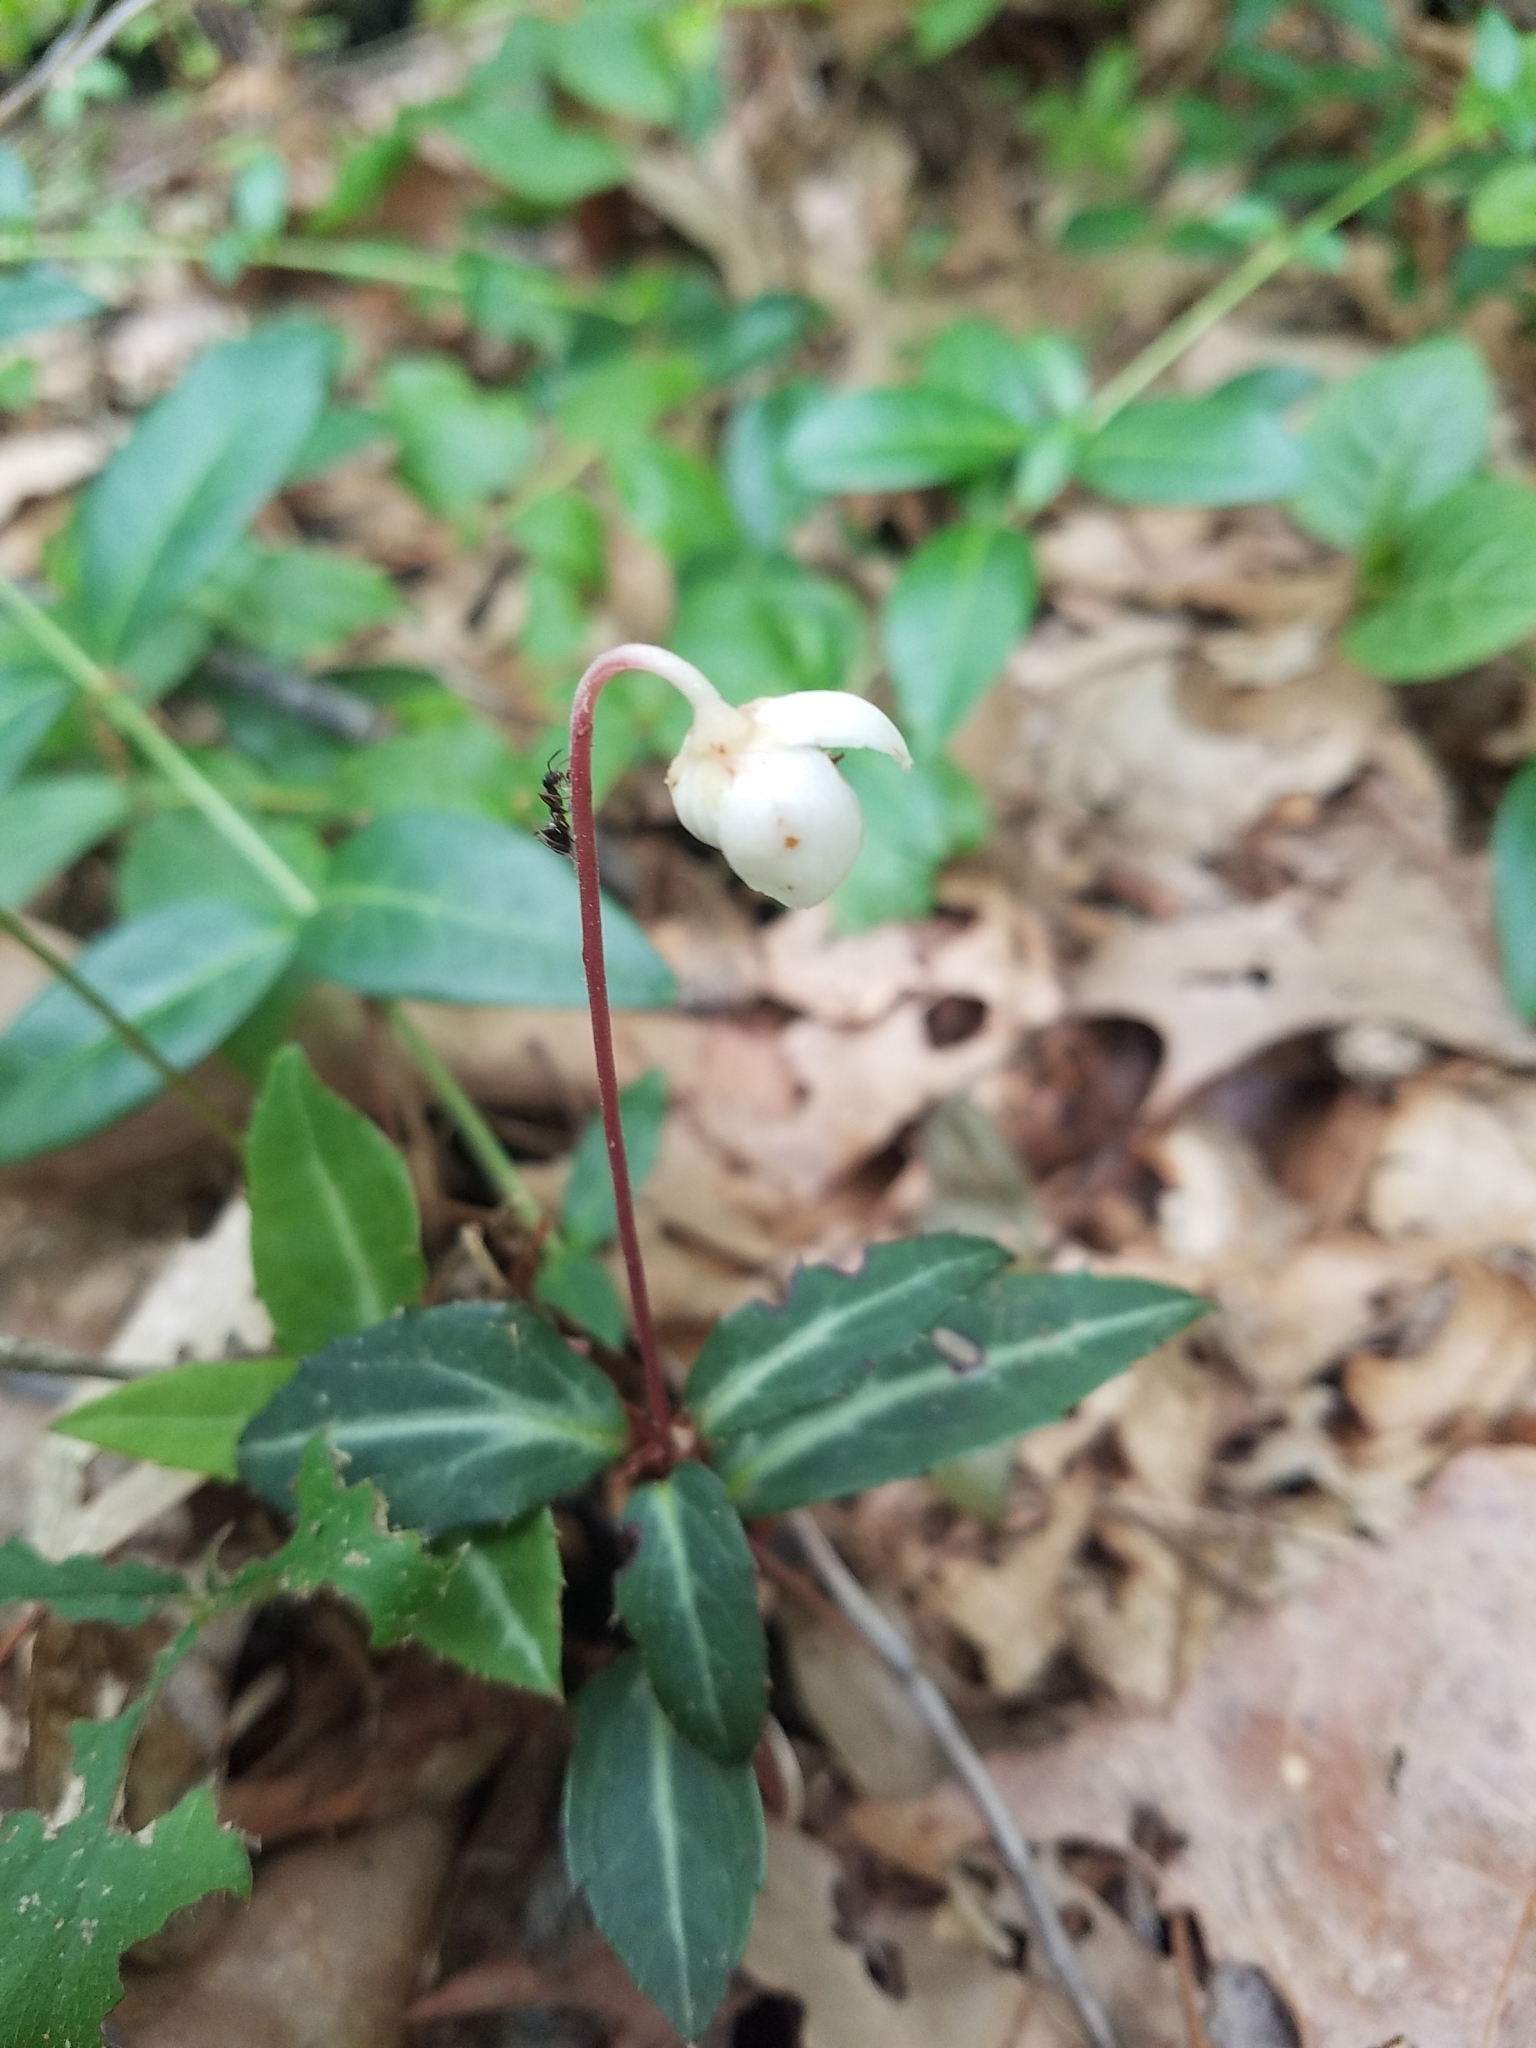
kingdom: Plantae
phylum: Tracheophyta
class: Magnoliopsida
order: Ericales
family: Ericaceae
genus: Chimaphila
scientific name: Chimaphila maculata
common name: Spotted pipsissewa
